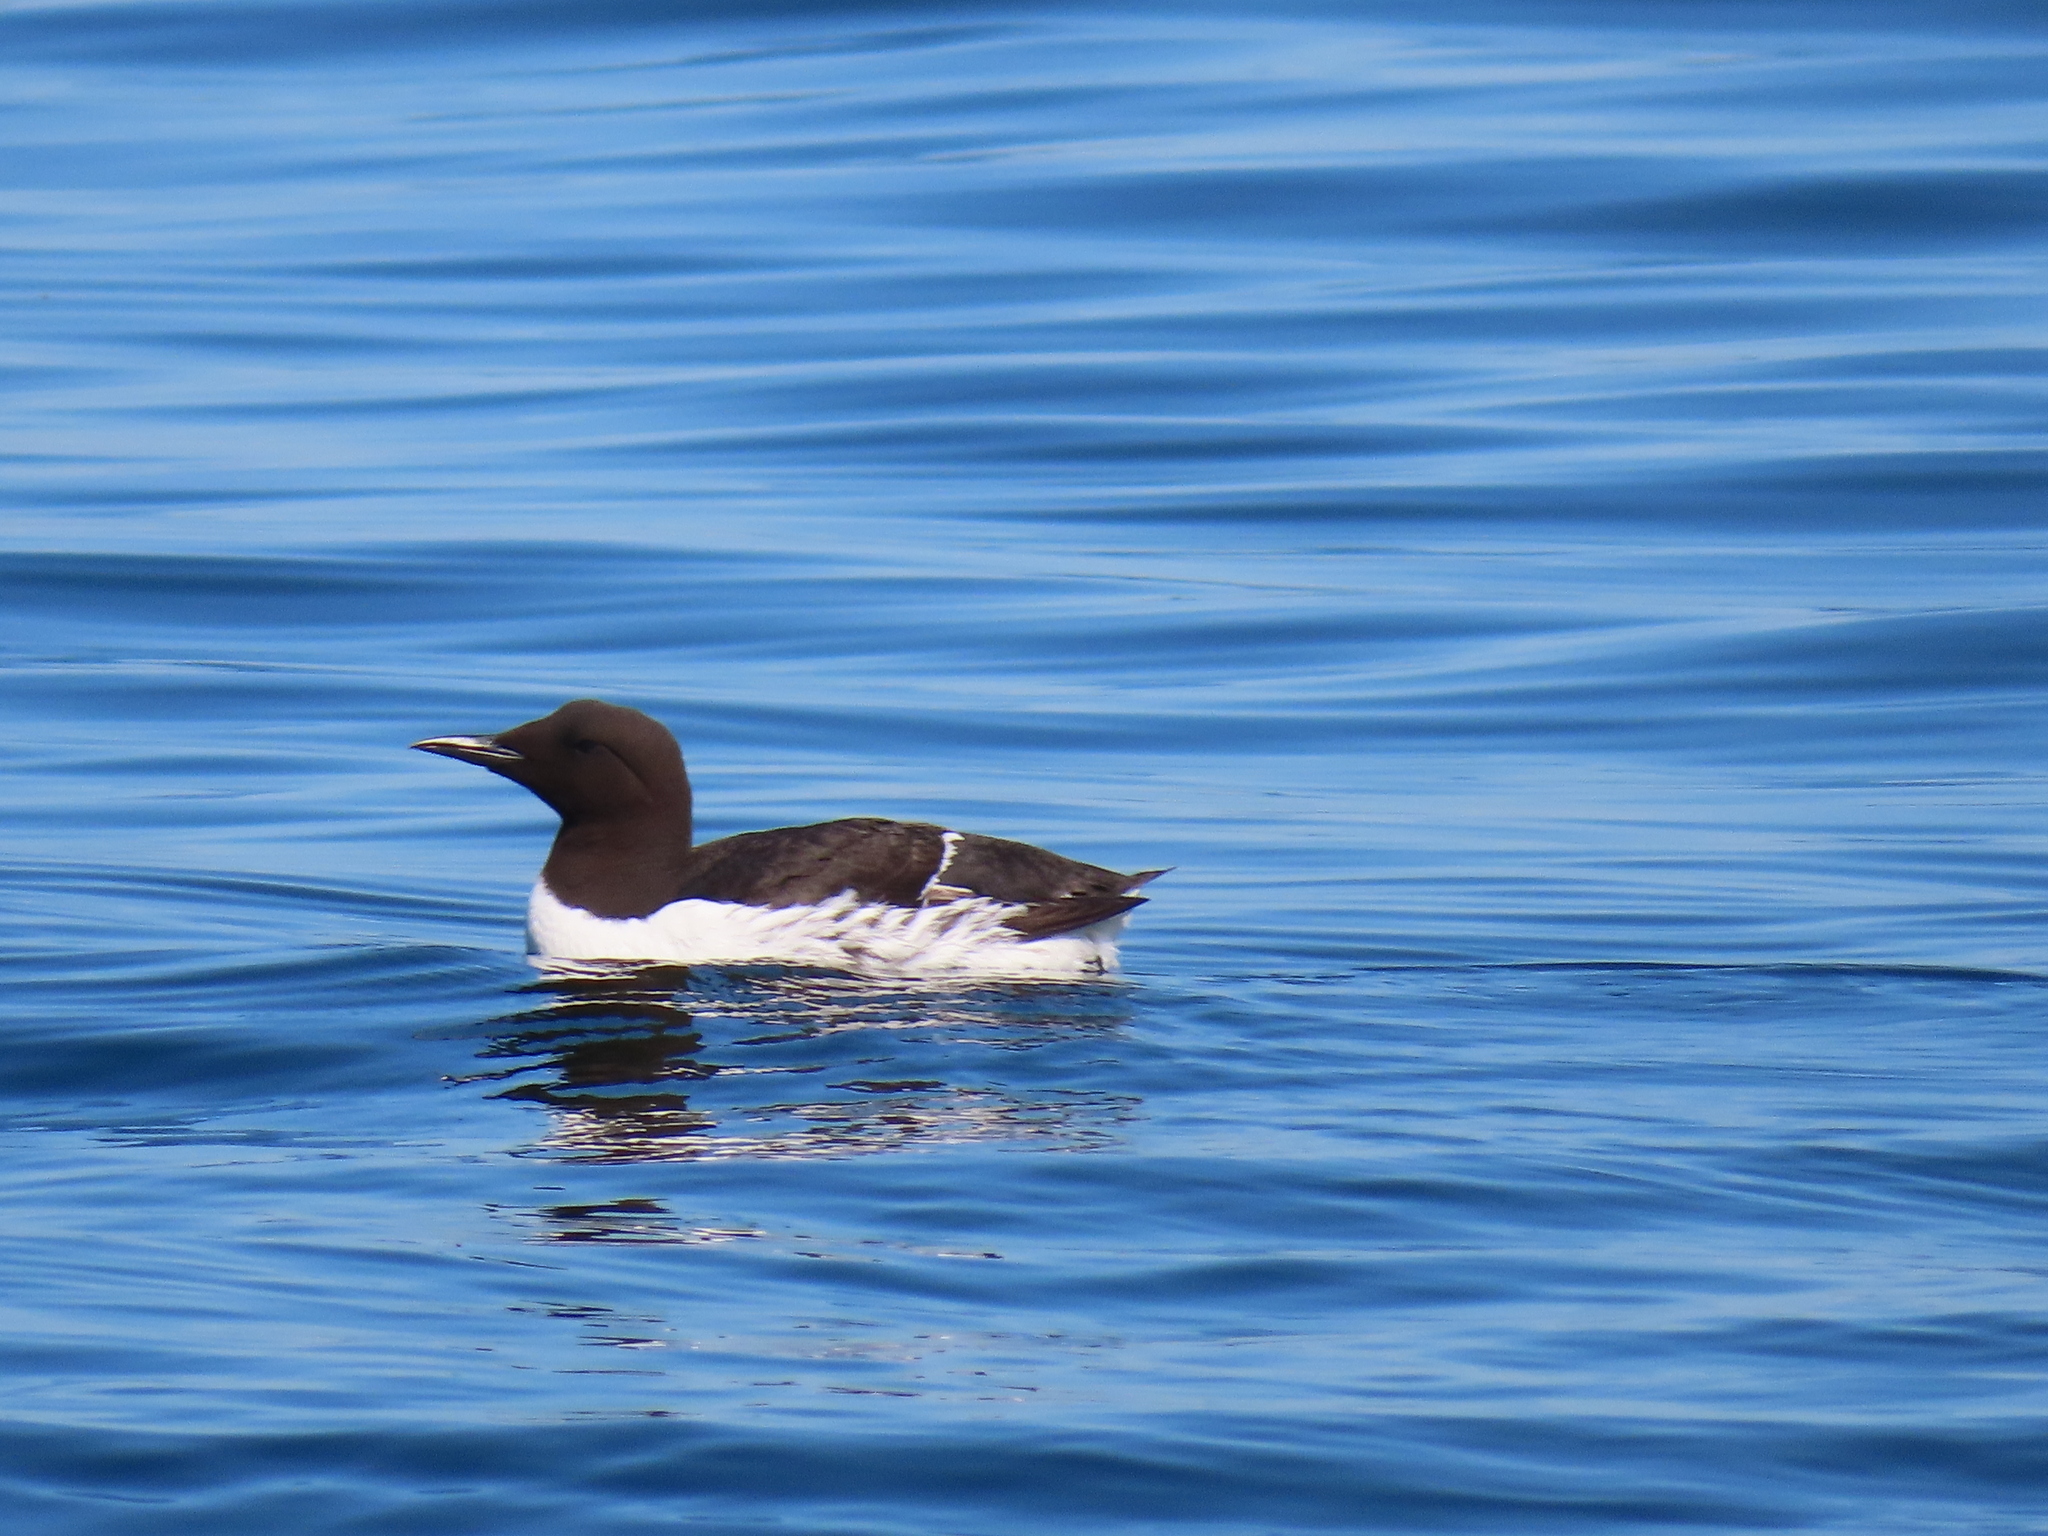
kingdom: Animalia
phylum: Chordata
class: Aves
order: Charadriiformes
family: Alcidae
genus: Uria
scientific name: Uria aalge
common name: Common murre
